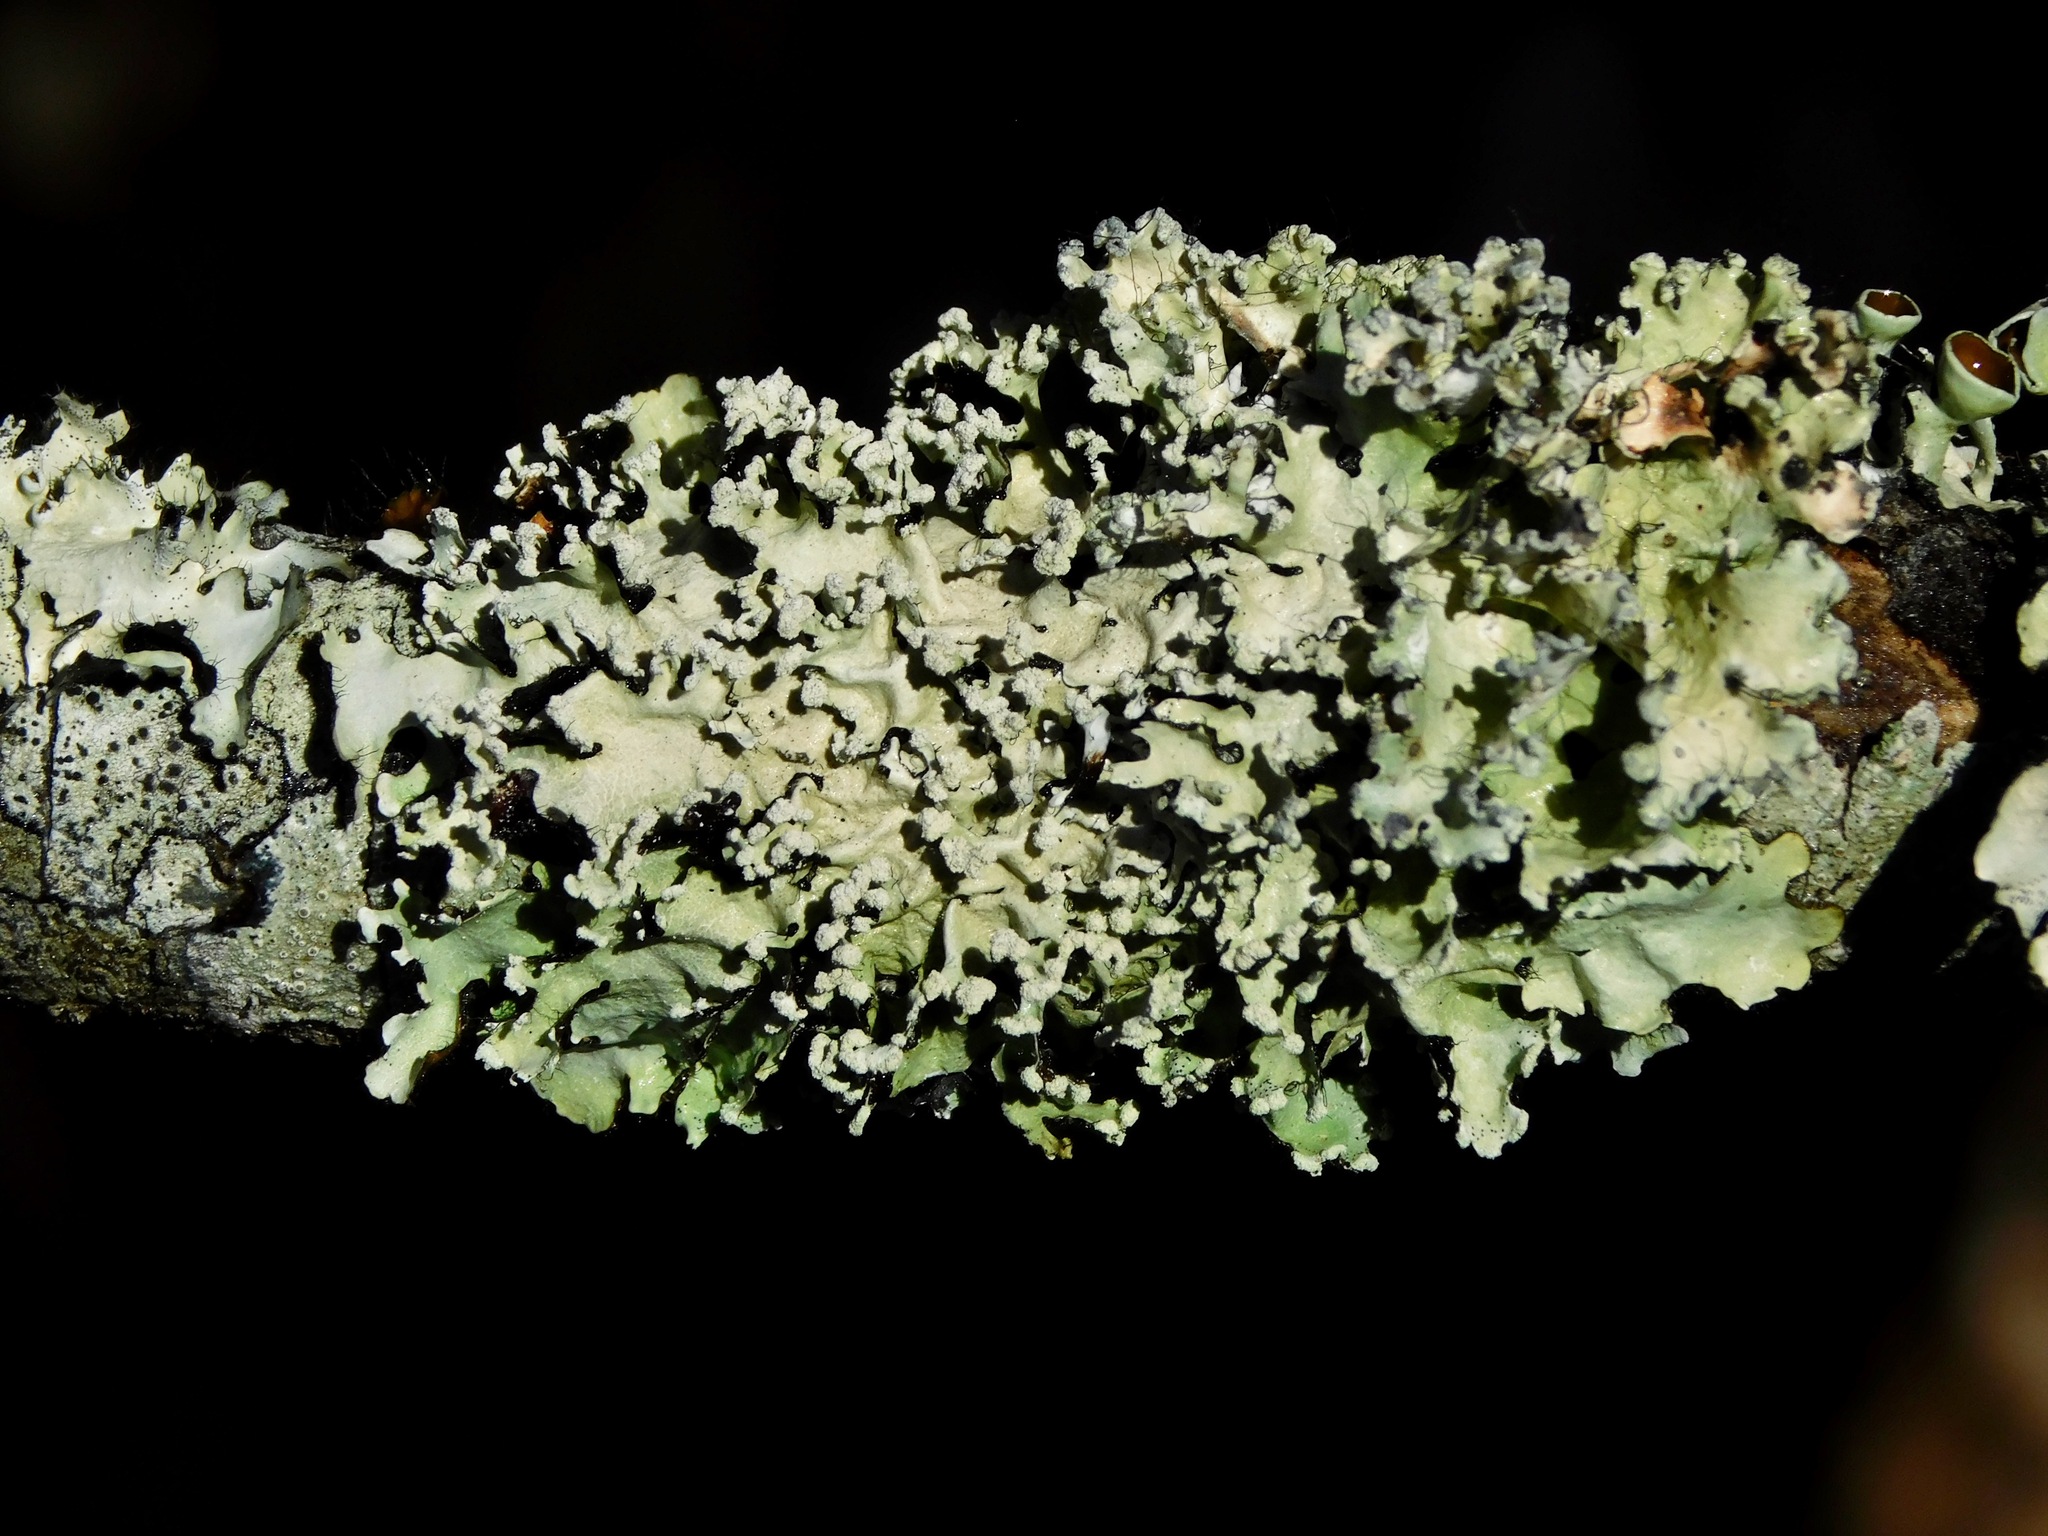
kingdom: Fungi
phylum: Ascomycota
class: Lecanoromycetes
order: Lecanorales
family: Parmeliaceae
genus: Parmotrema
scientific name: Parmotrema reticulatum
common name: Black sheet lichen
